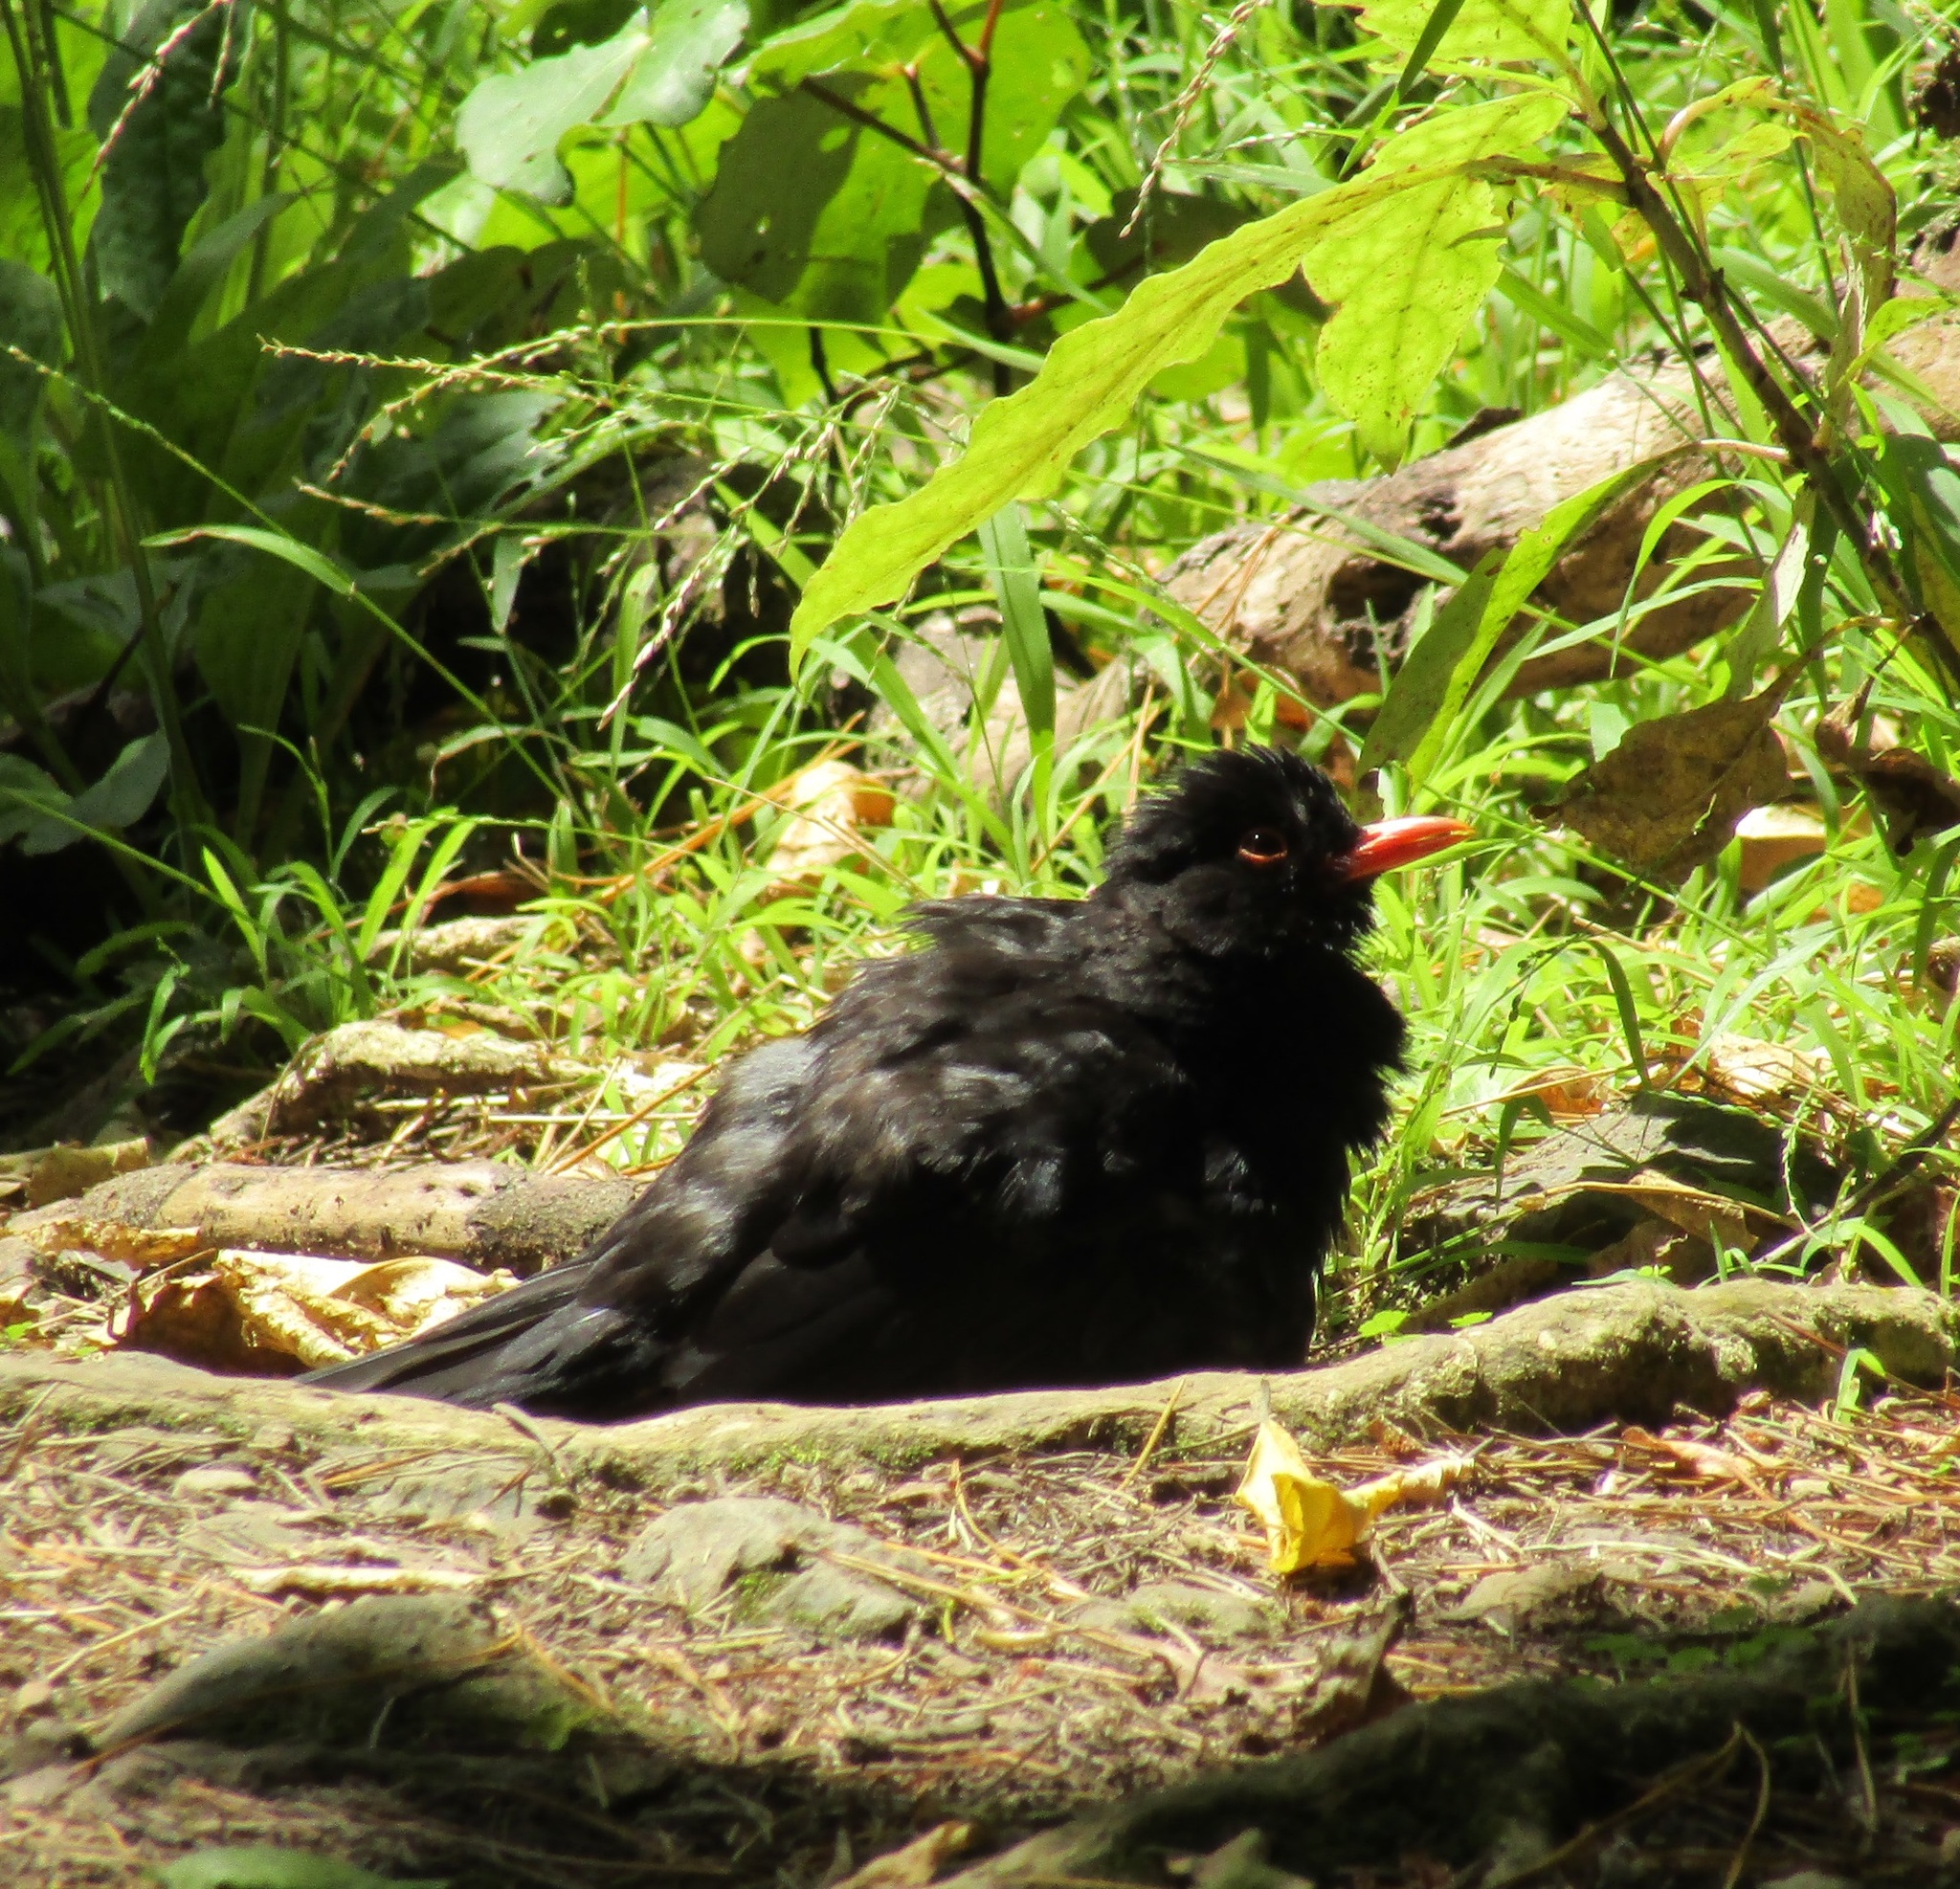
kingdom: Animalia
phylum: Chordata
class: Aves
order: Passeriformes
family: Turdidae
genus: Turdus
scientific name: Turdus merula
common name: Common blackbird
